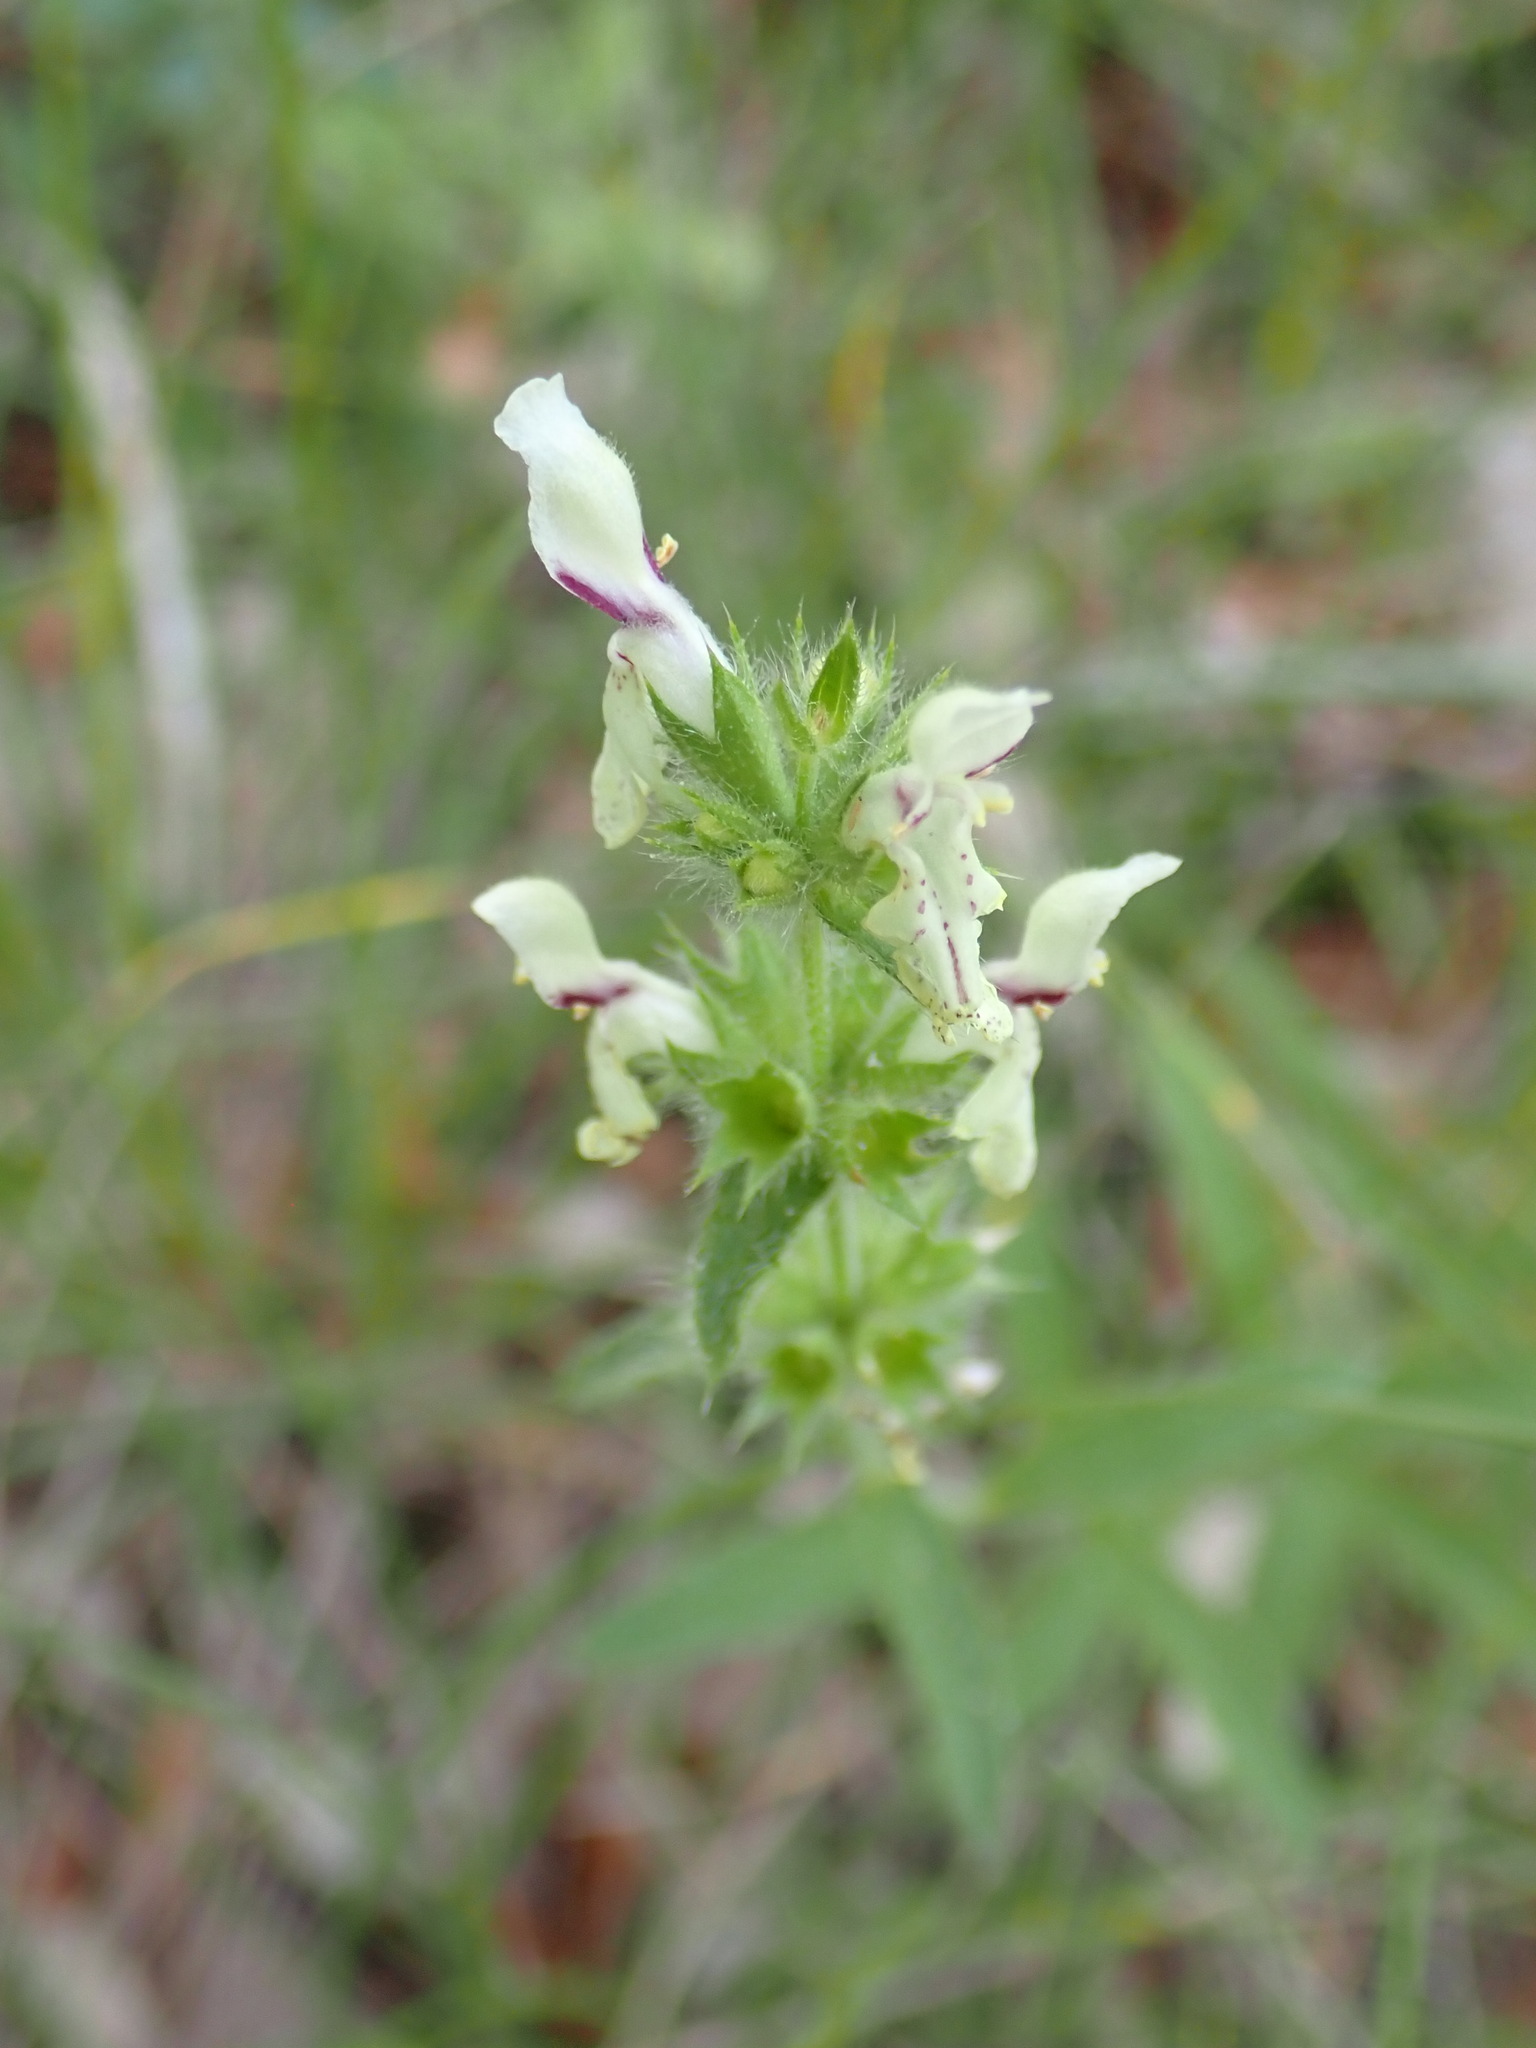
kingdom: Plantae
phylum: Tracheophyta
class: Magnoliopsida
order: Lamiales
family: Lamiaceae
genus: Stachys
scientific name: Stachys recta
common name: Perennial yellow-woundwort
